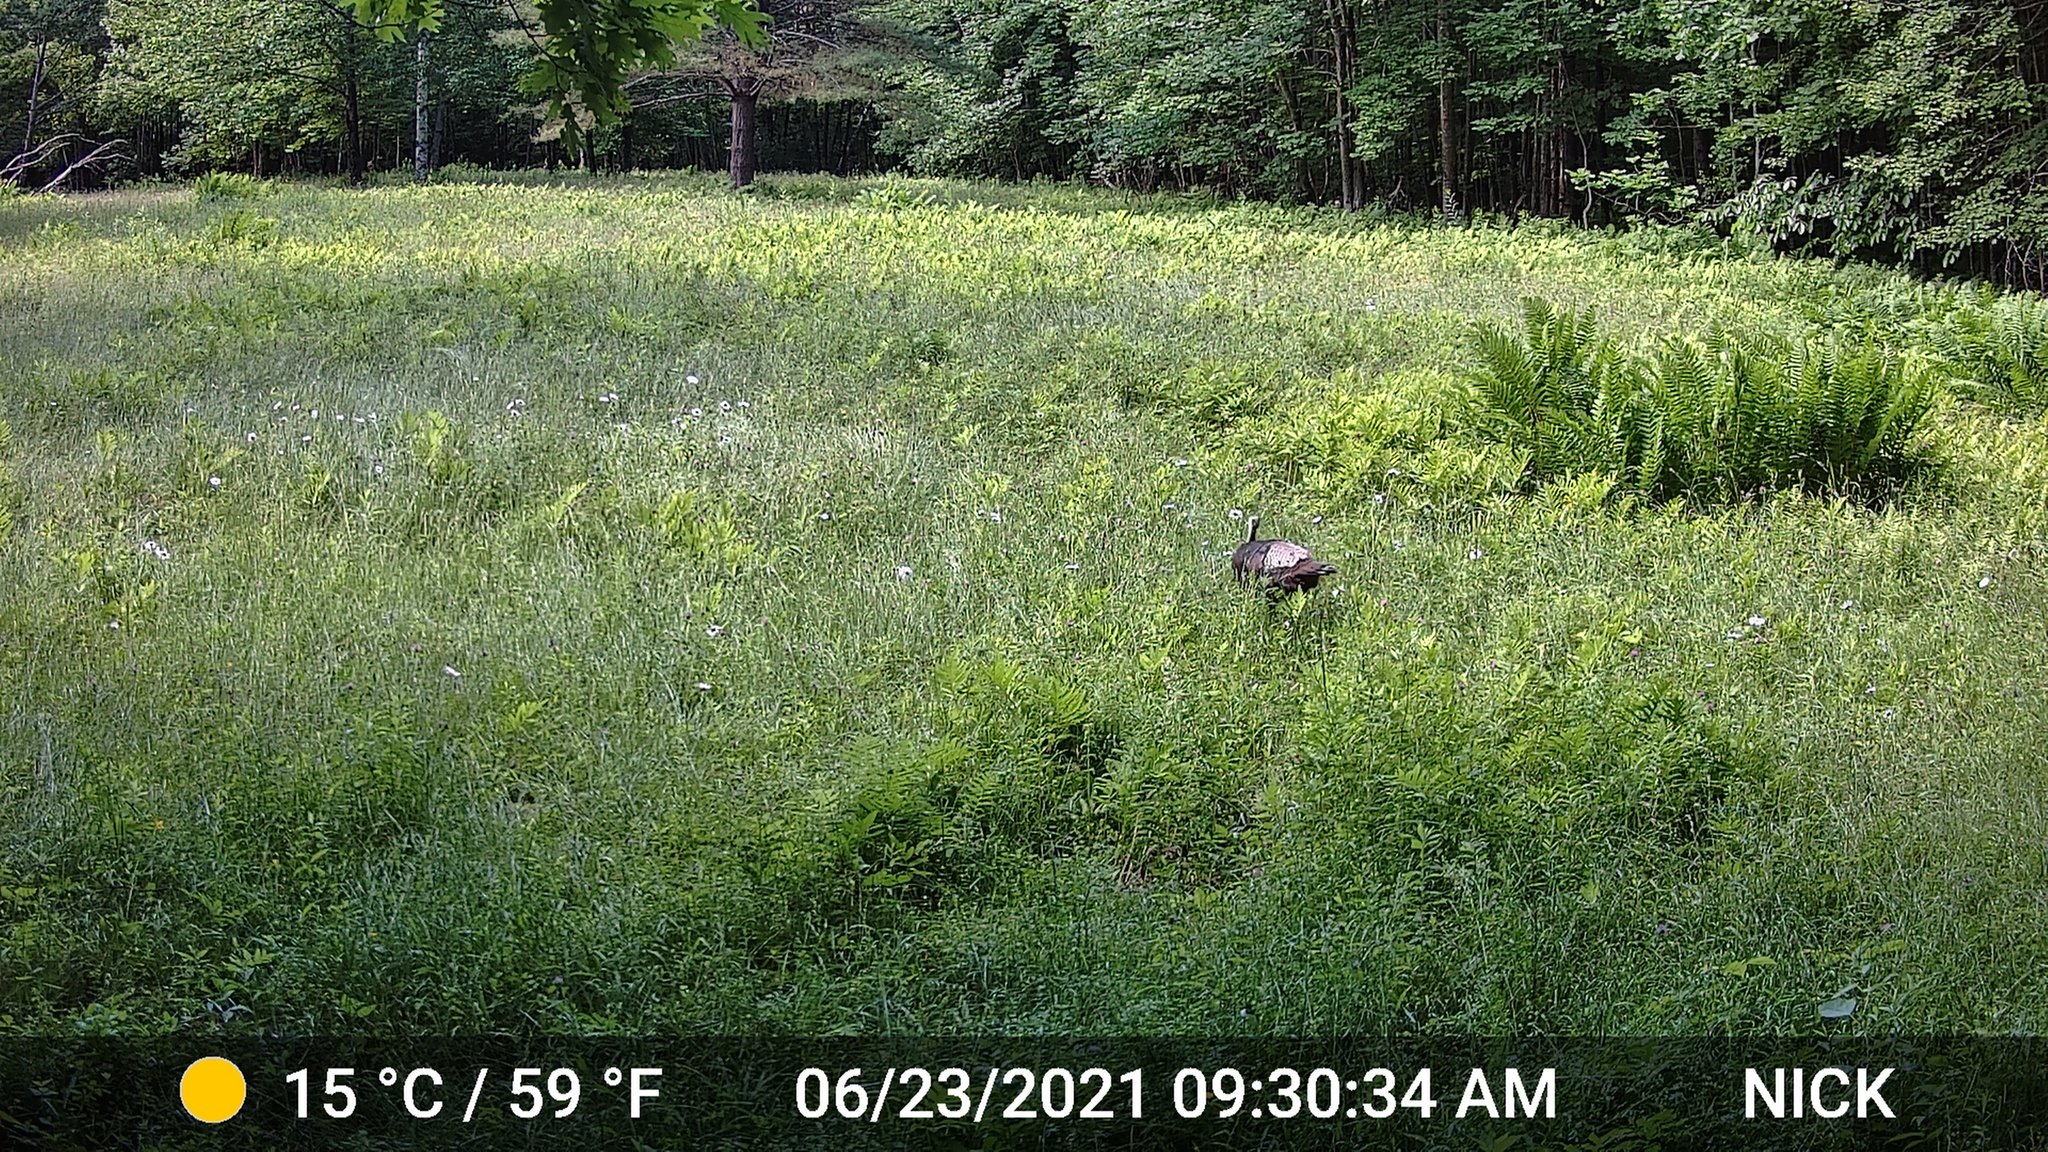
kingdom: Animalia
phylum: Chordata
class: Aves
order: Galliformes
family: Phasianidae
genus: Meleagris
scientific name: Meleagris gallopavo
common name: Wild turkey
